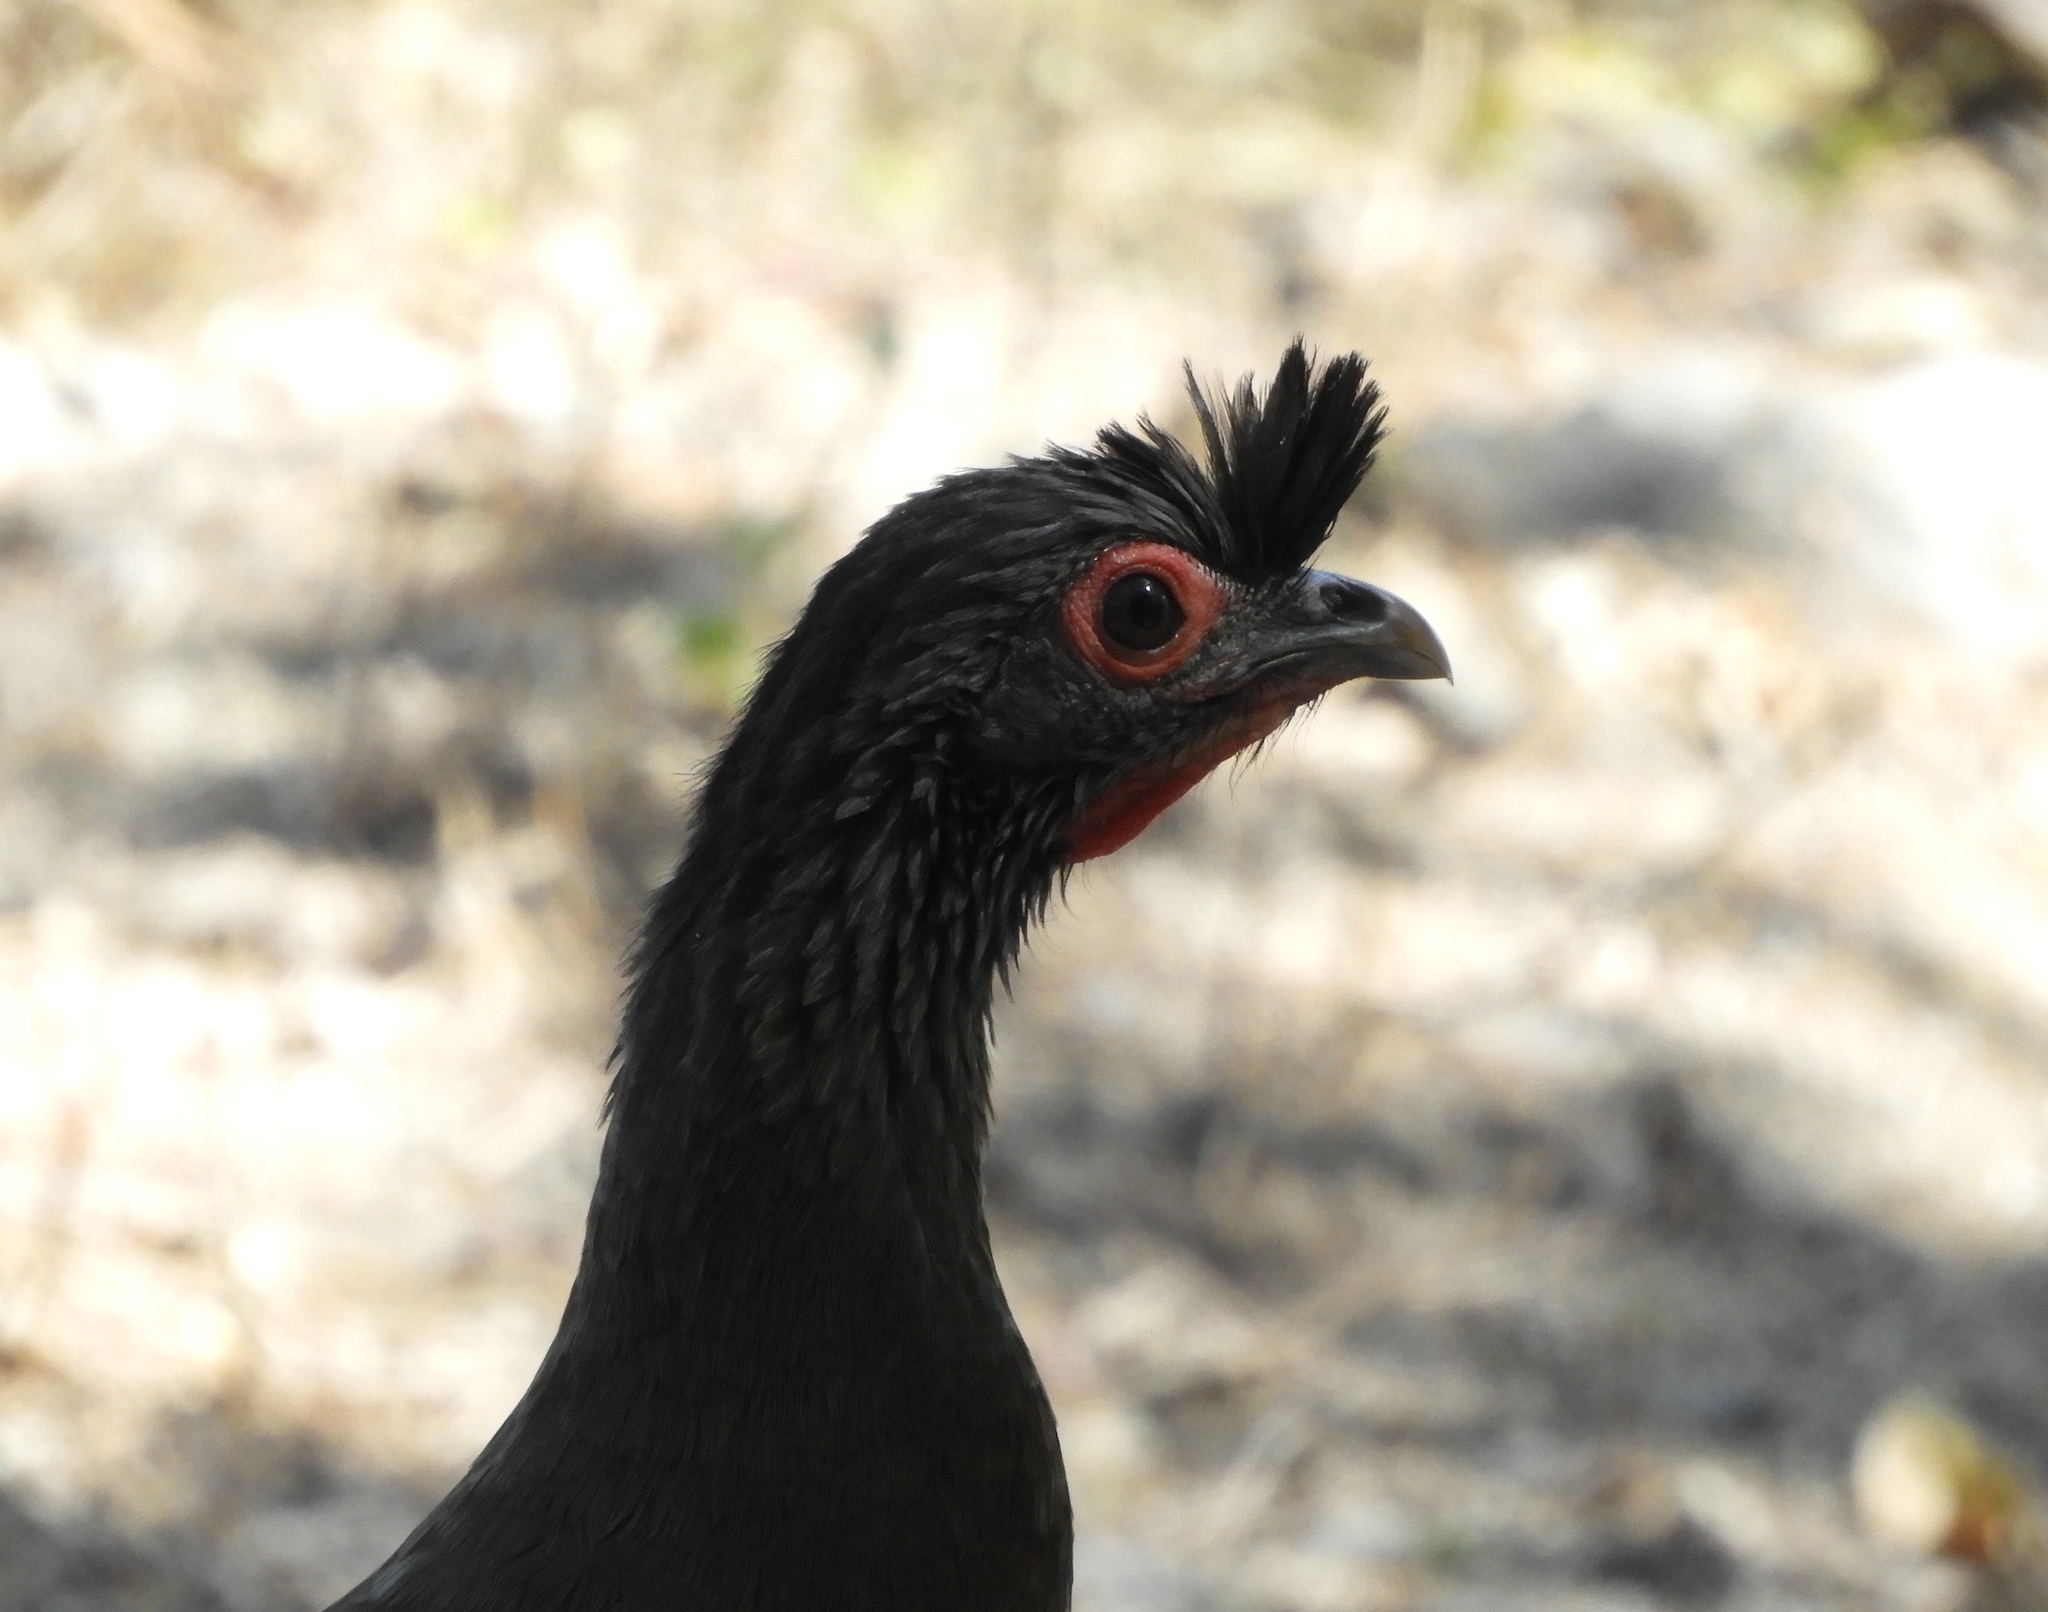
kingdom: Animalia
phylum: Chordata
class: Aves
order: Galliformes
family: Cracidae
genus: Ortalis
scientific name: Ortalis wagleri
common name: Rufous-bellied chachalaca
